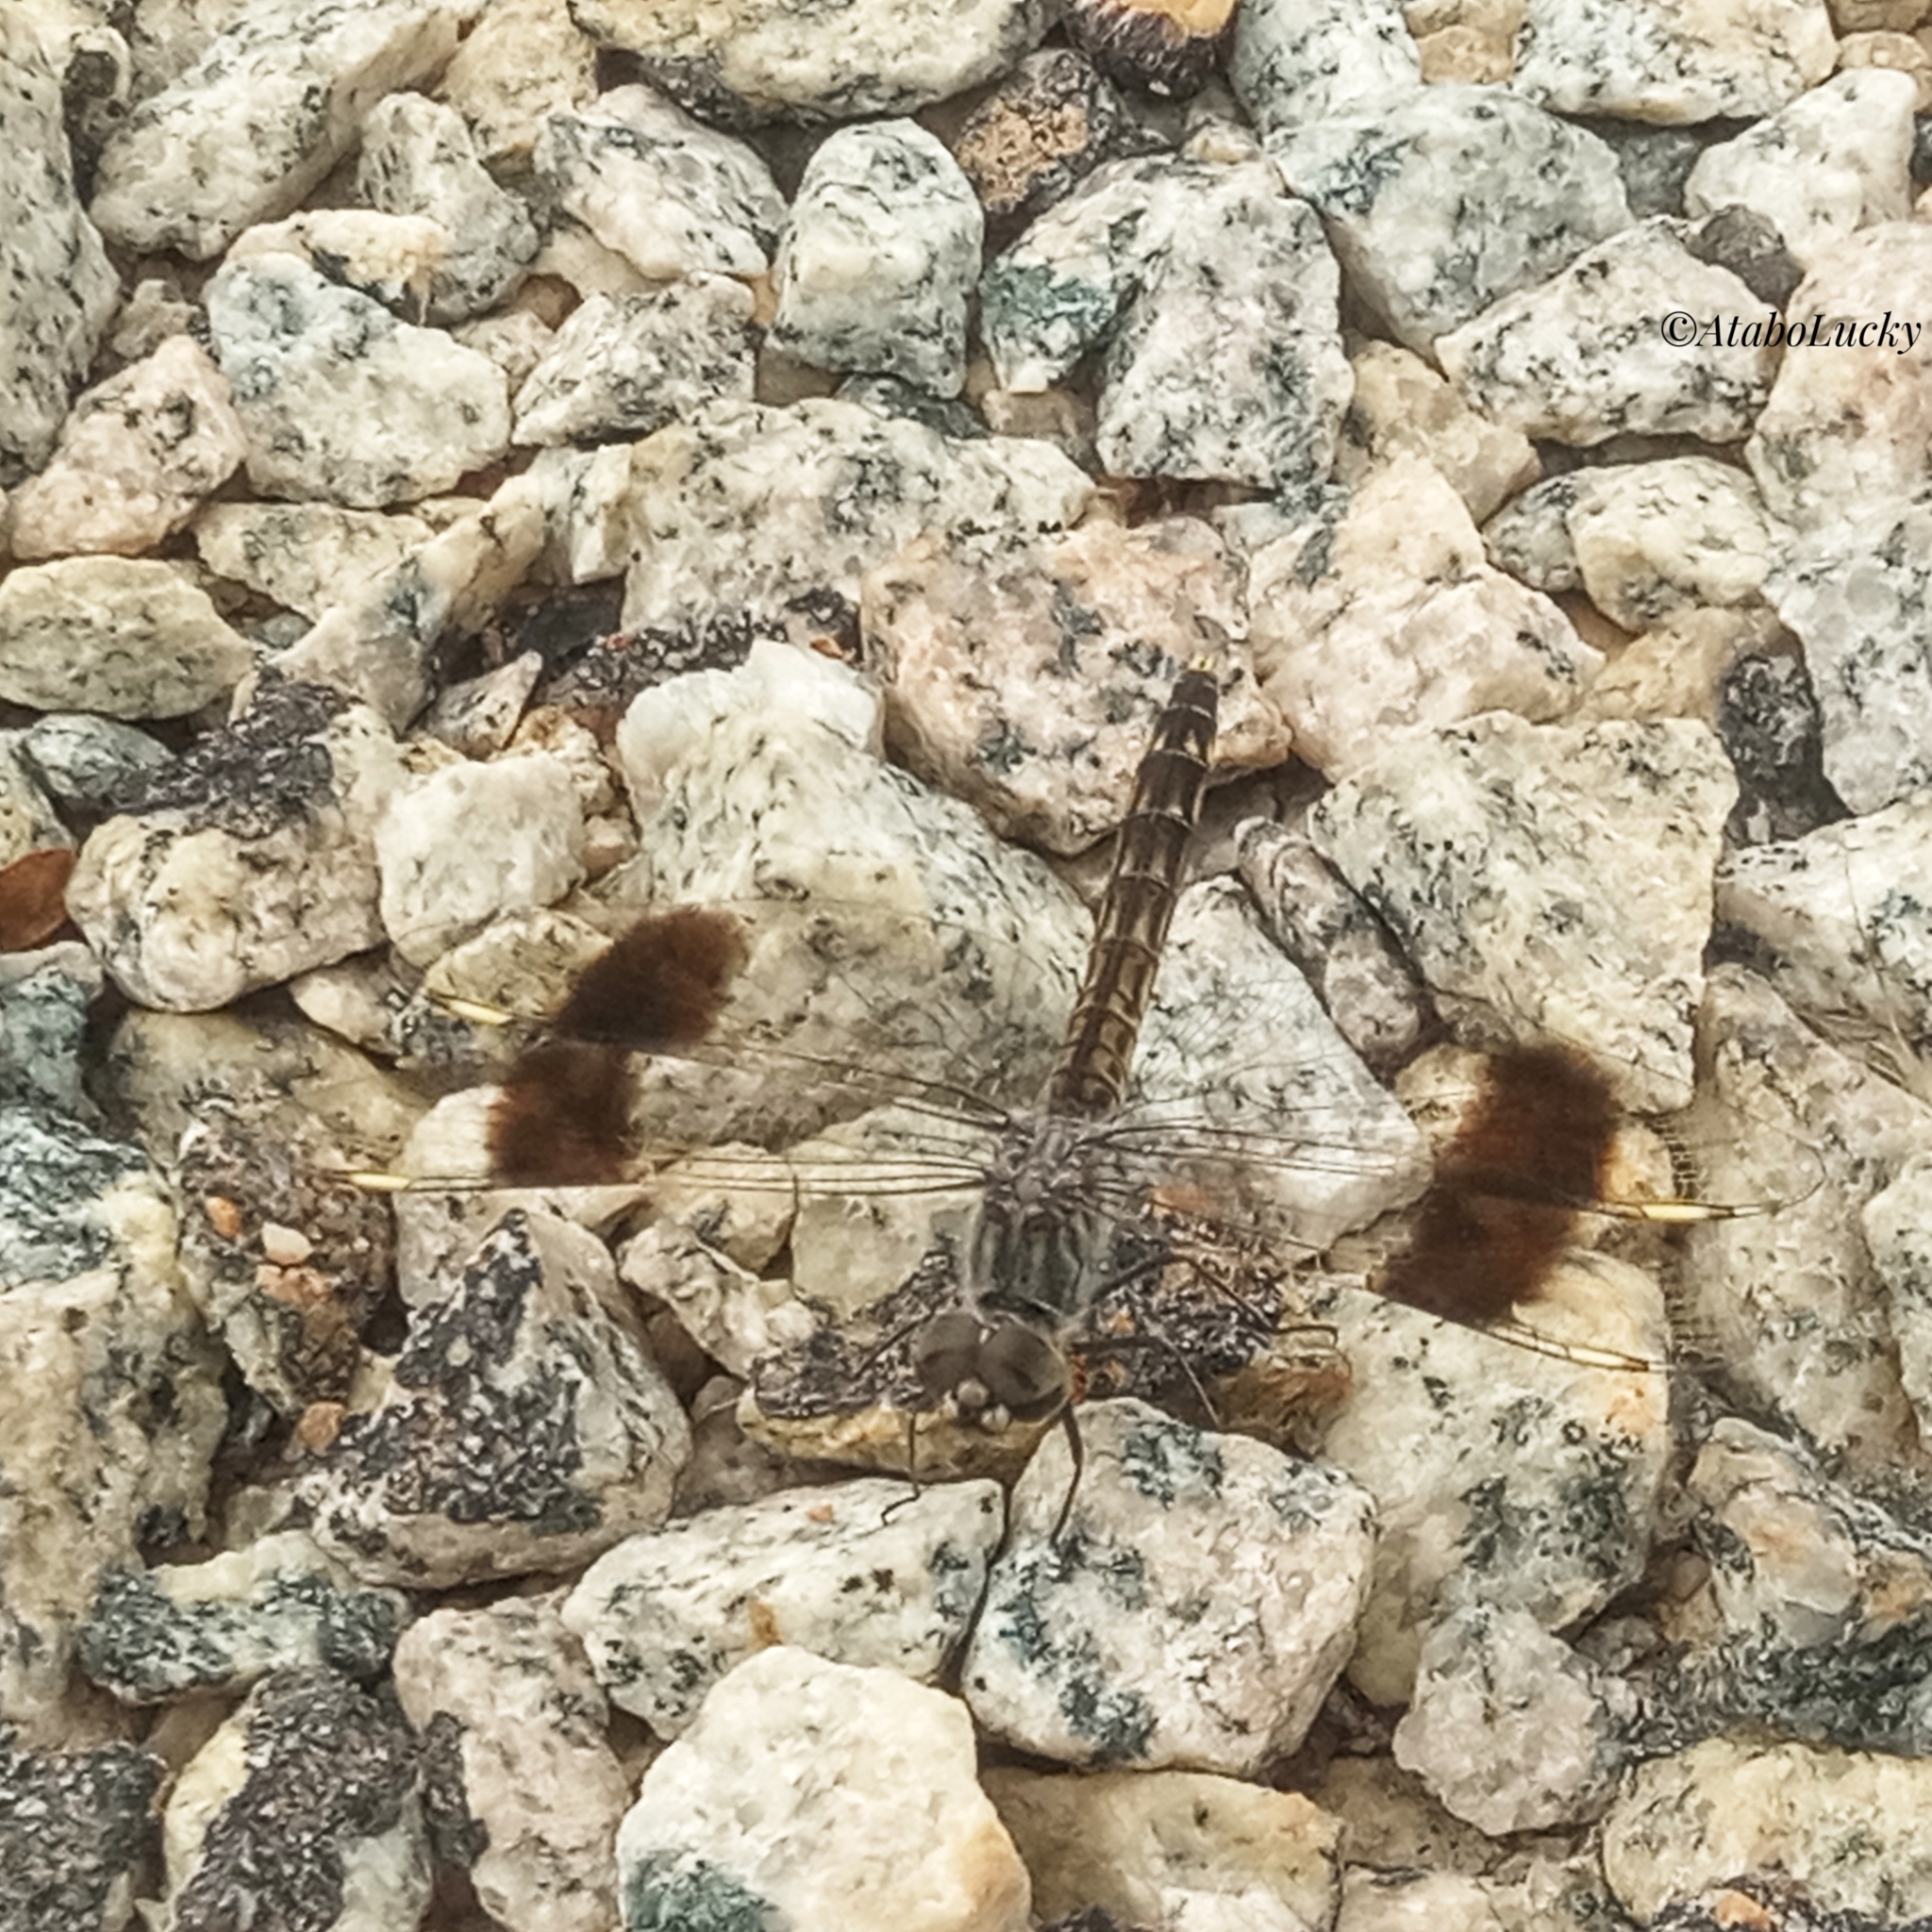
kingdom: Animalia
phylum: Arthropoda
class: Insecta
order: Odonata
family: Libellulidae
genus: Brachythemis
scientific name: Brachythemis impartita
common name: Banded groundling
